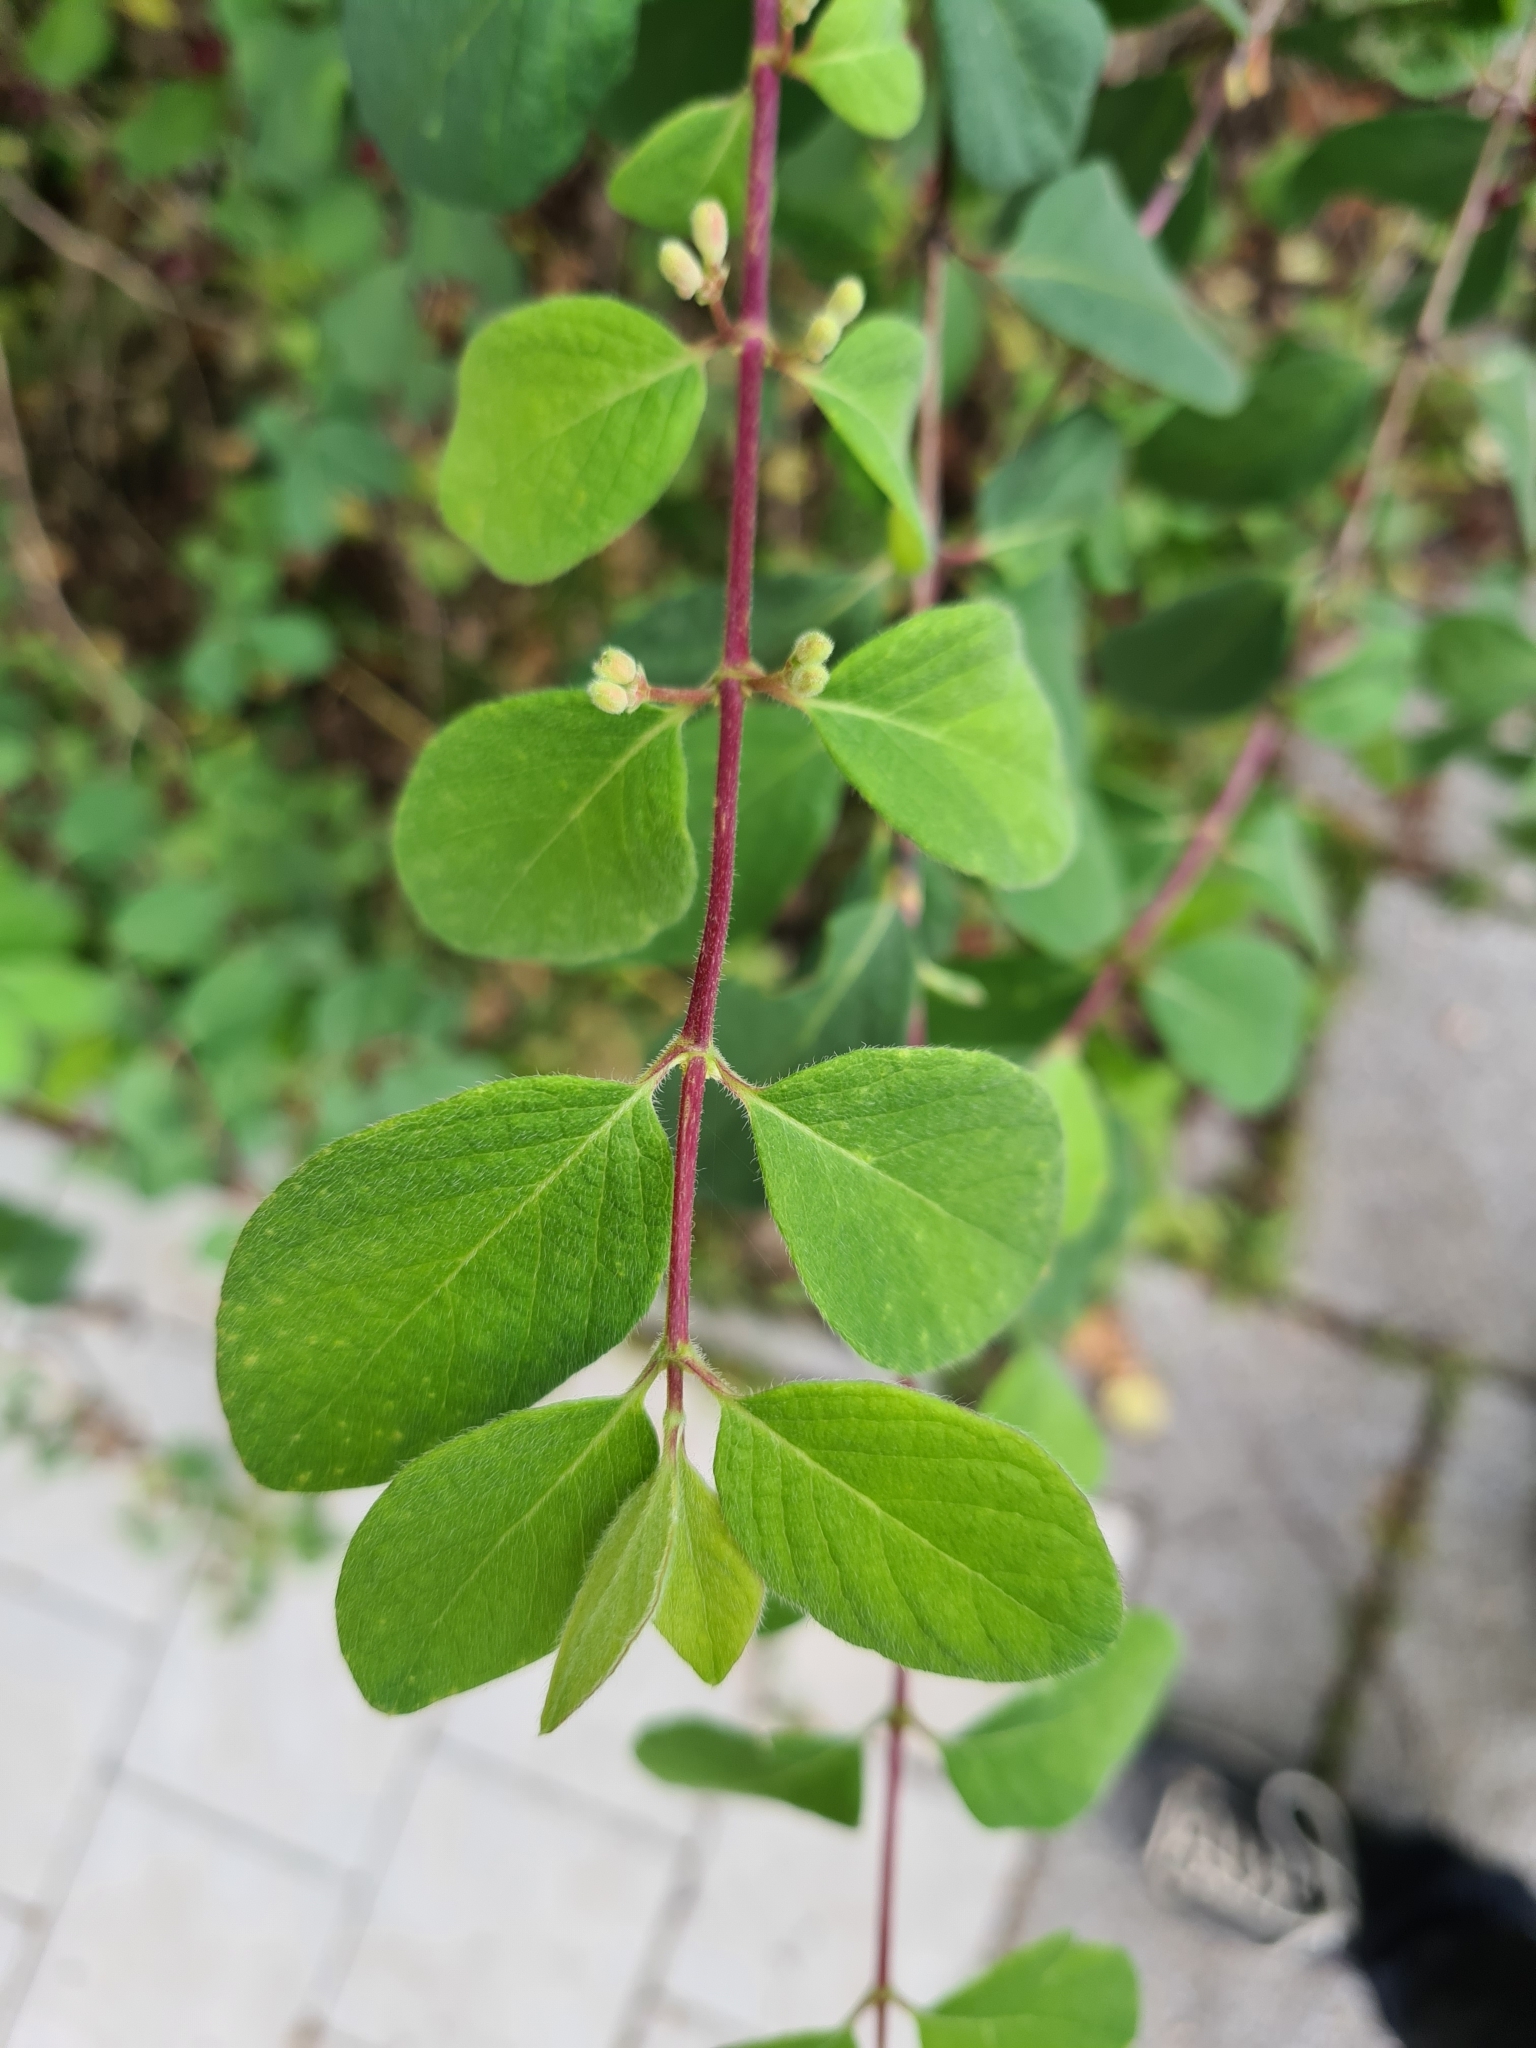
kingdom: Plantae
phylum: Tracheophyta
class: Magnoliopsida
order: Dipsacales
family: Caprifoliaceae
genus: Lonicera
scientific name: Lonicera xylosteum
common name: Fly honeysuckle
